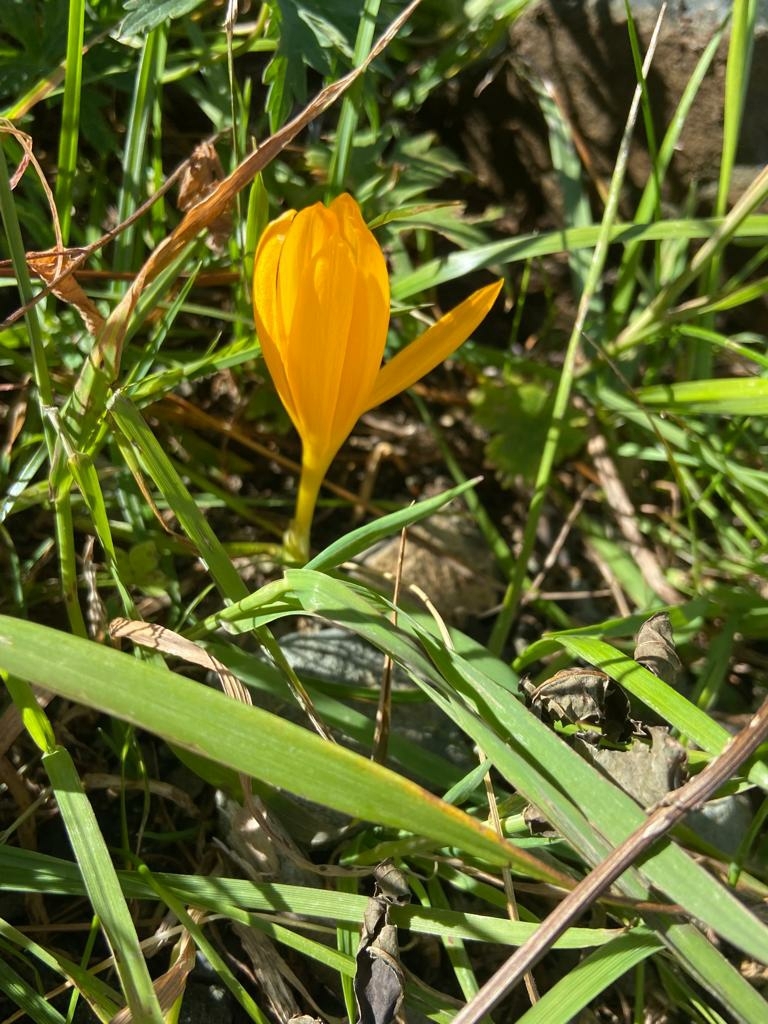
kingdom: Plantae
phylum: Tracheophyta
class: Liliopsida
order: Asparagales
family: Iridaceae
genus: Crocus
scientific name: Crocus scharojanii
